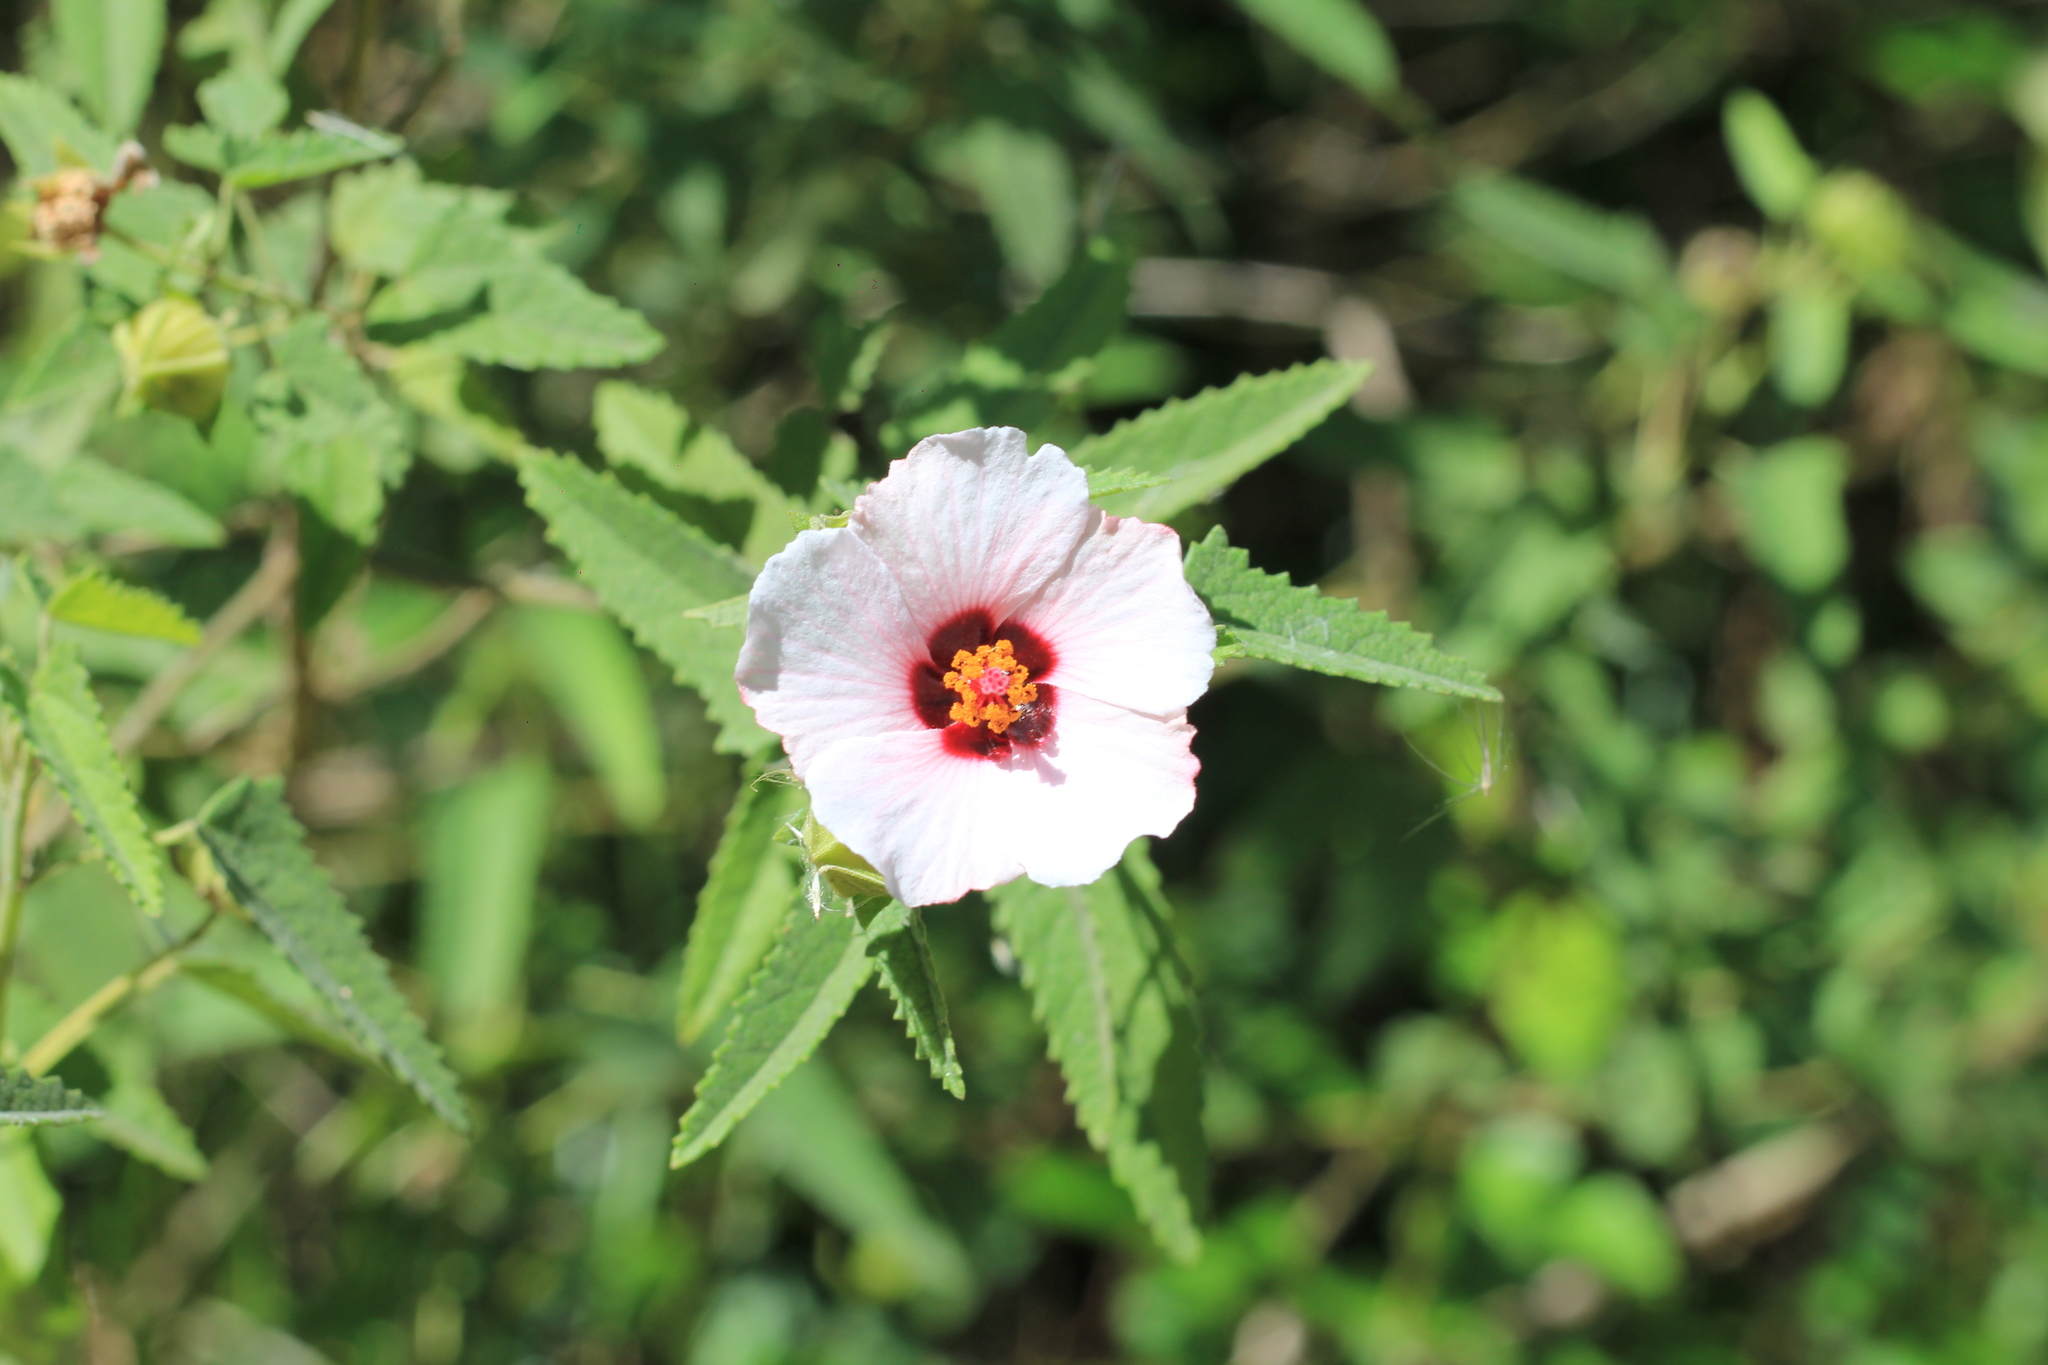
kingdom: Plantae
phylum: Tracheophyta
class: Magnoliopsida
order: Malvales
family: Malvaceae
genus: Pavonia
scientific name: Pavonia hastata
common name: Spearleaf swampmallow
